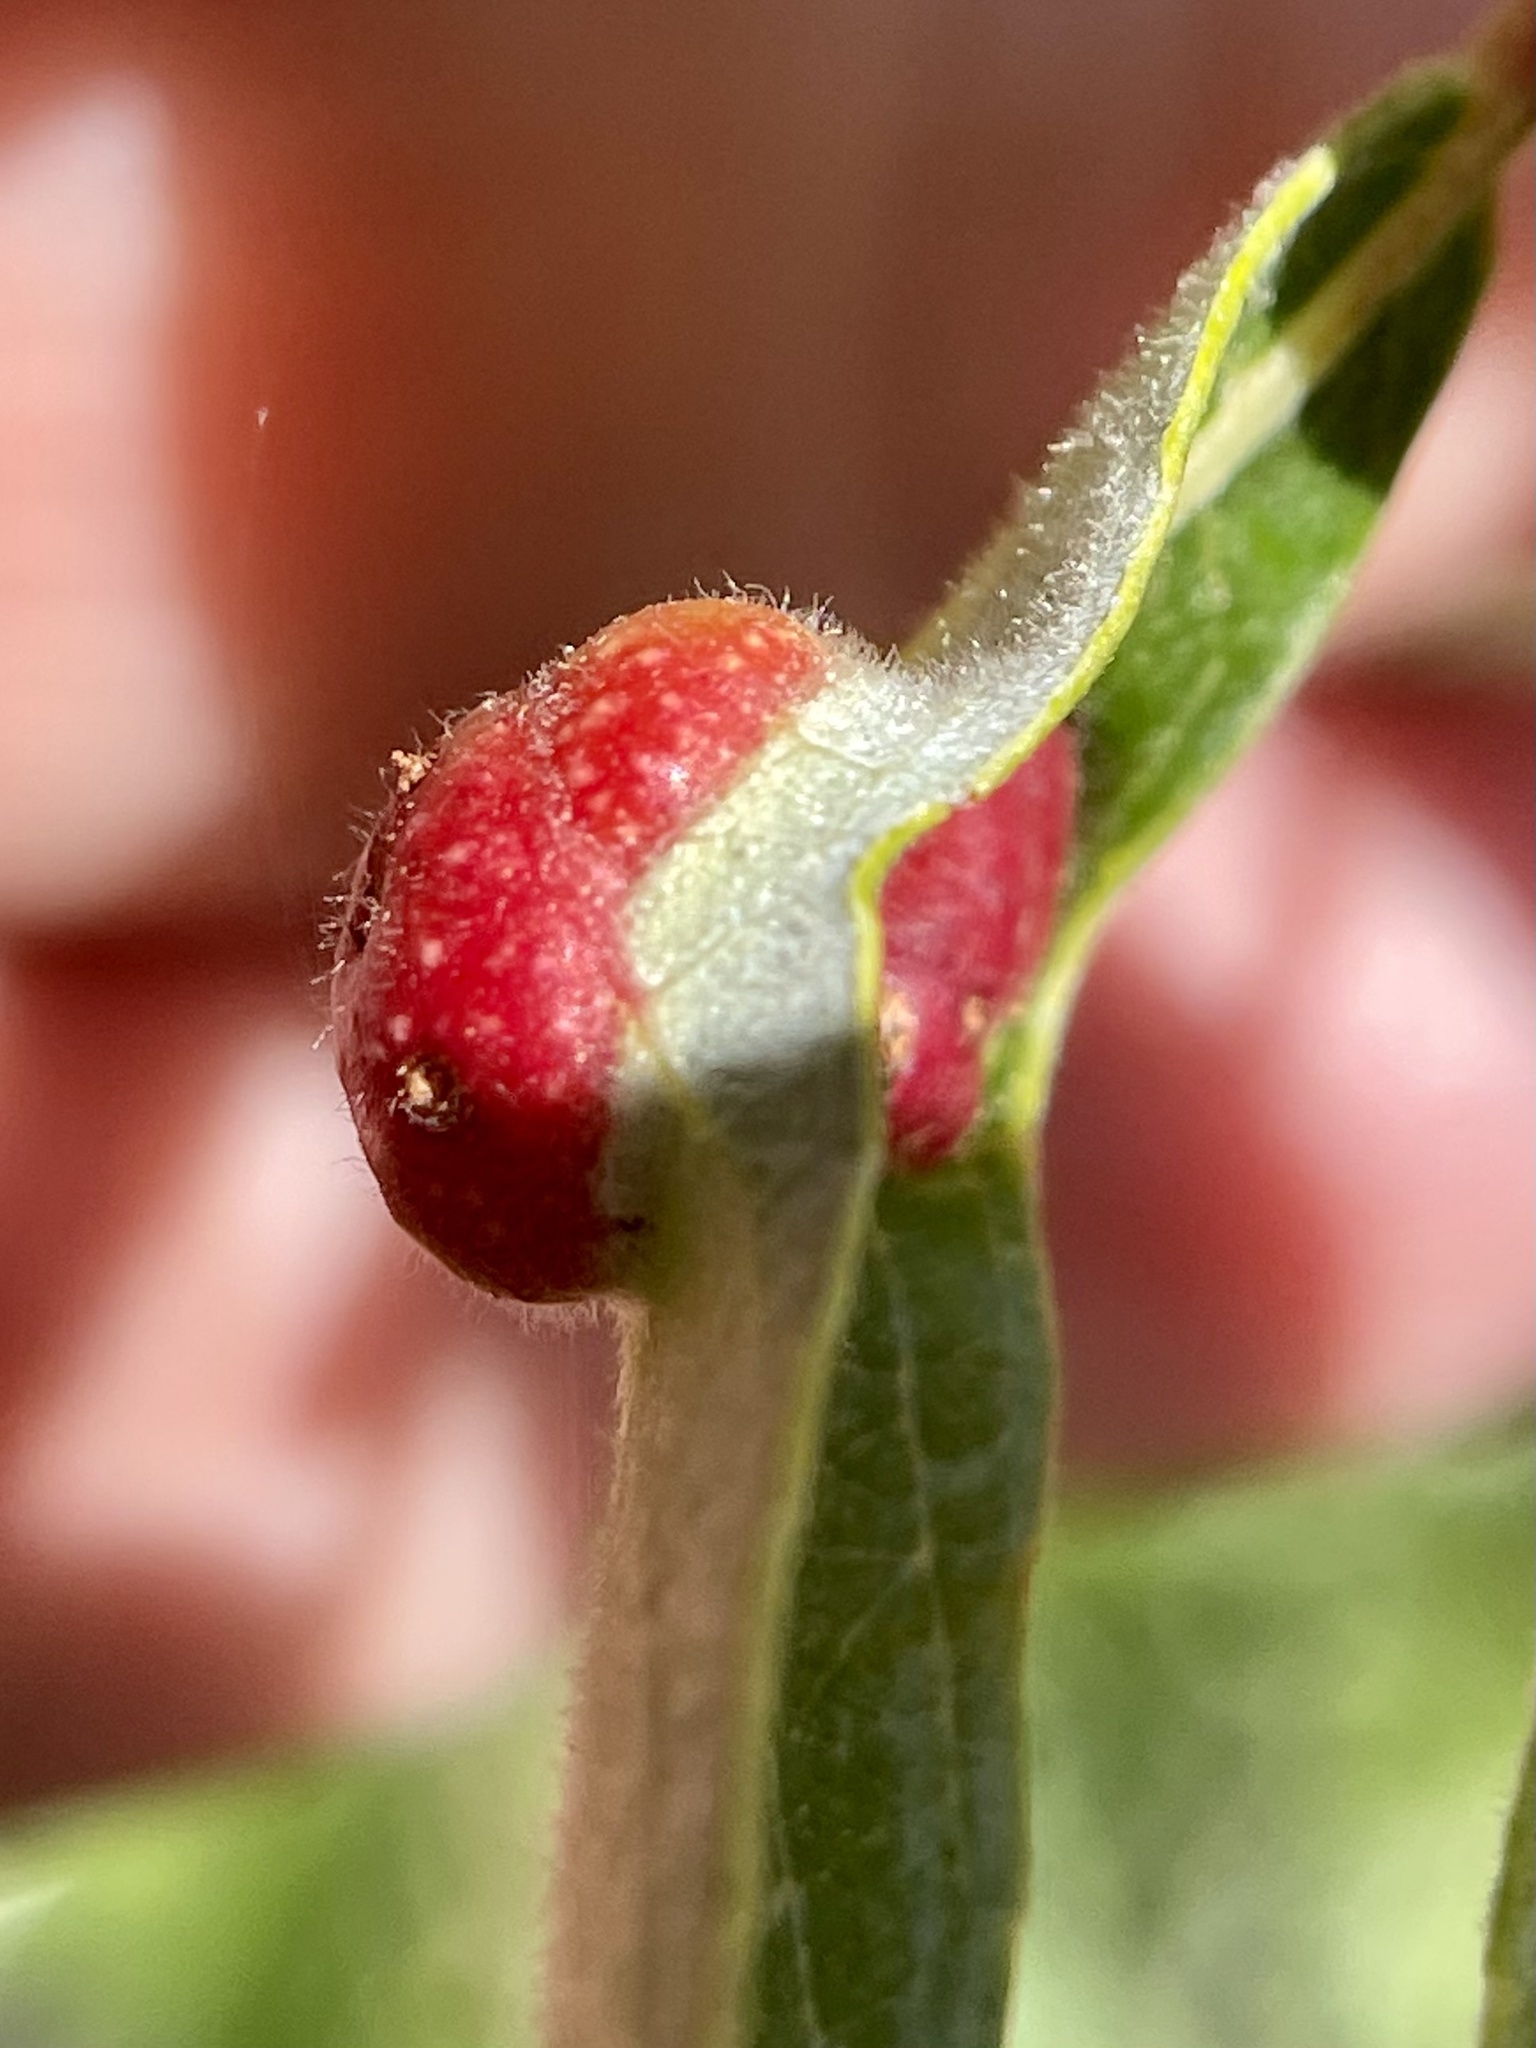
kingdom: Animalia
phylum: Arthropoda
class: Insecta
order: Hymenoptera
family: Tenthredinidae
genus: Euura
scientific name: Euura
